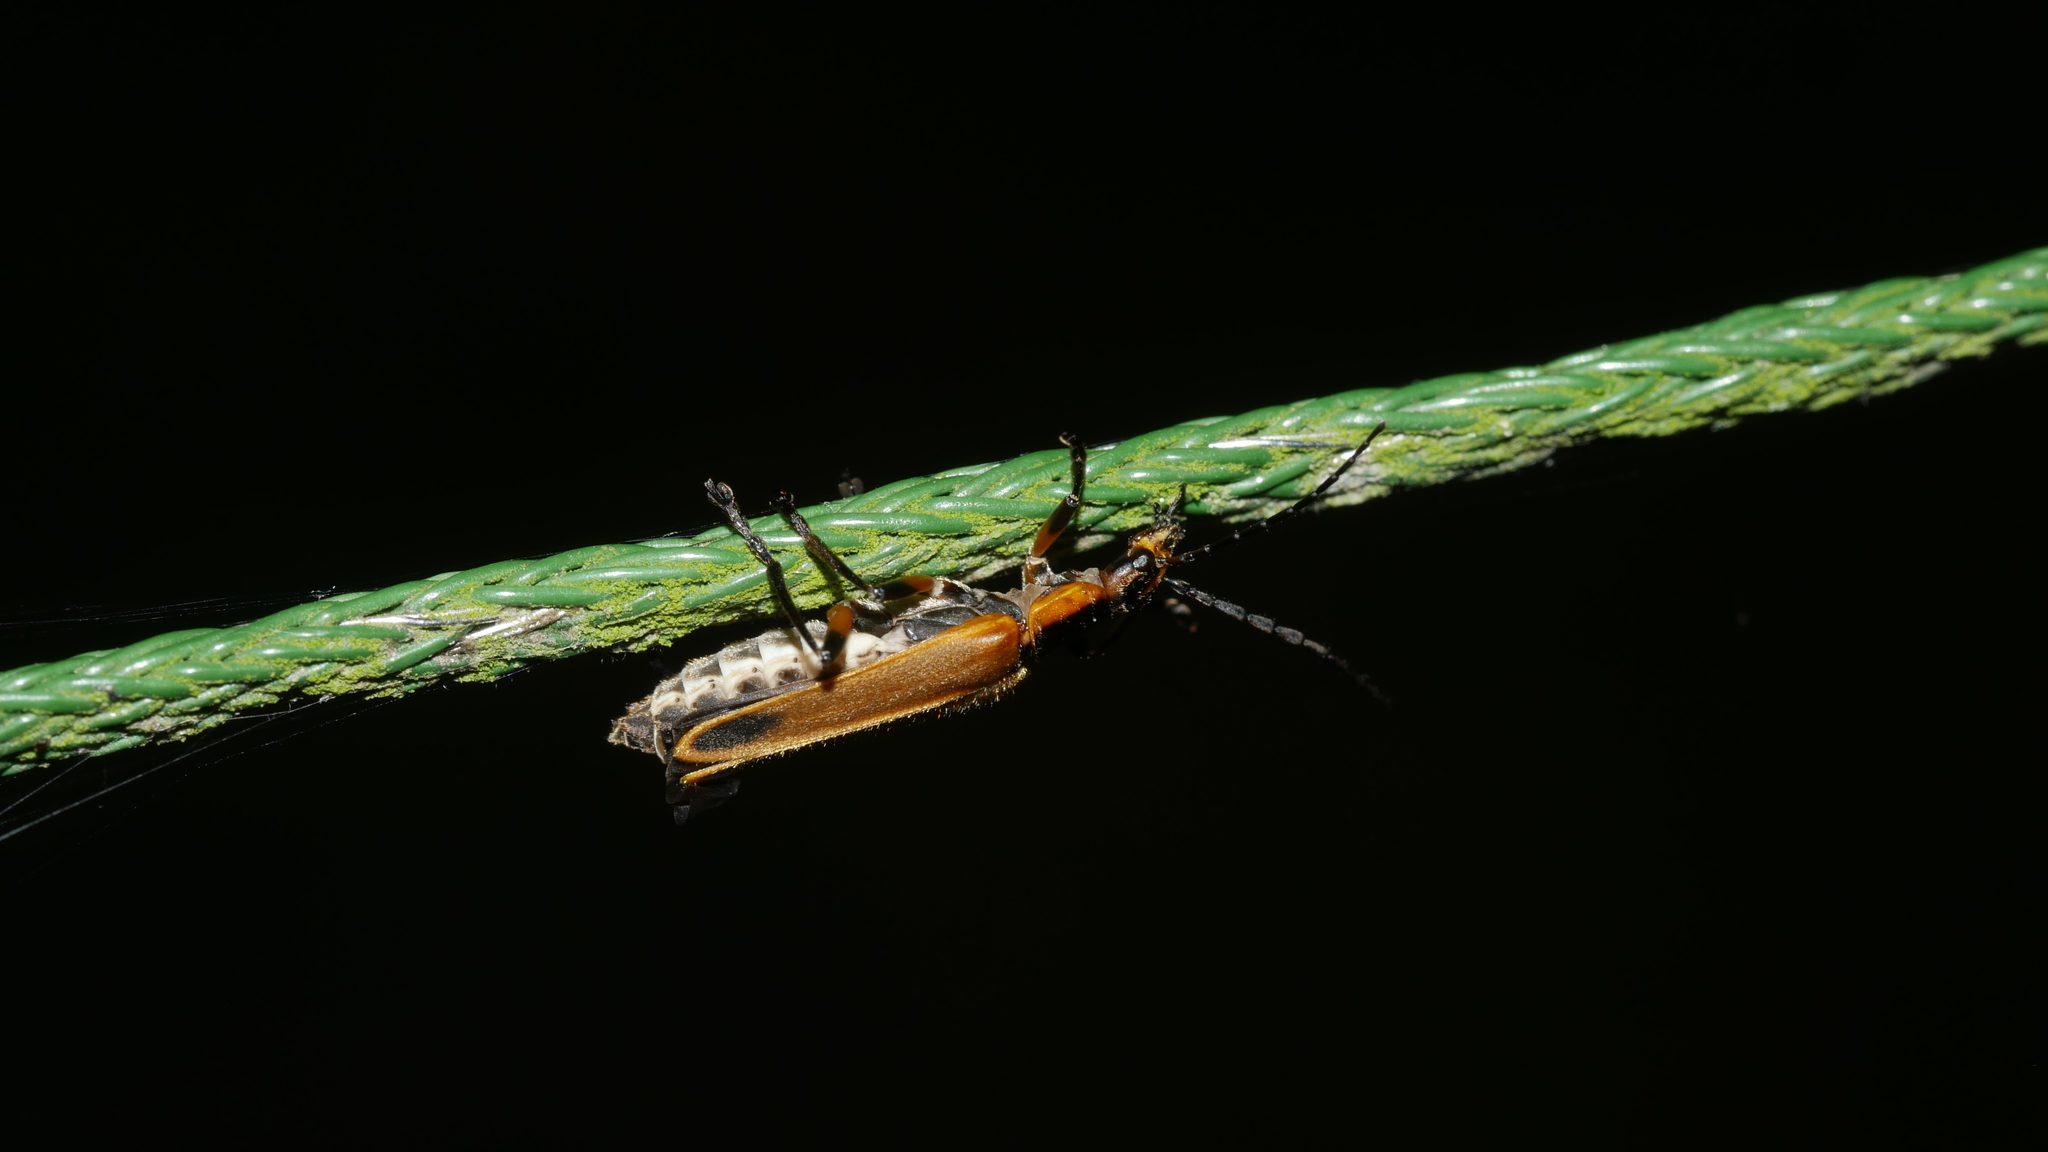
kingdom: Animalia
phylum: Arthropoda
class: Insecta
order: Coleoptera
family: Cantharidae
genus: Chauliognathus
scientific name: Chauliognathus marginatus
